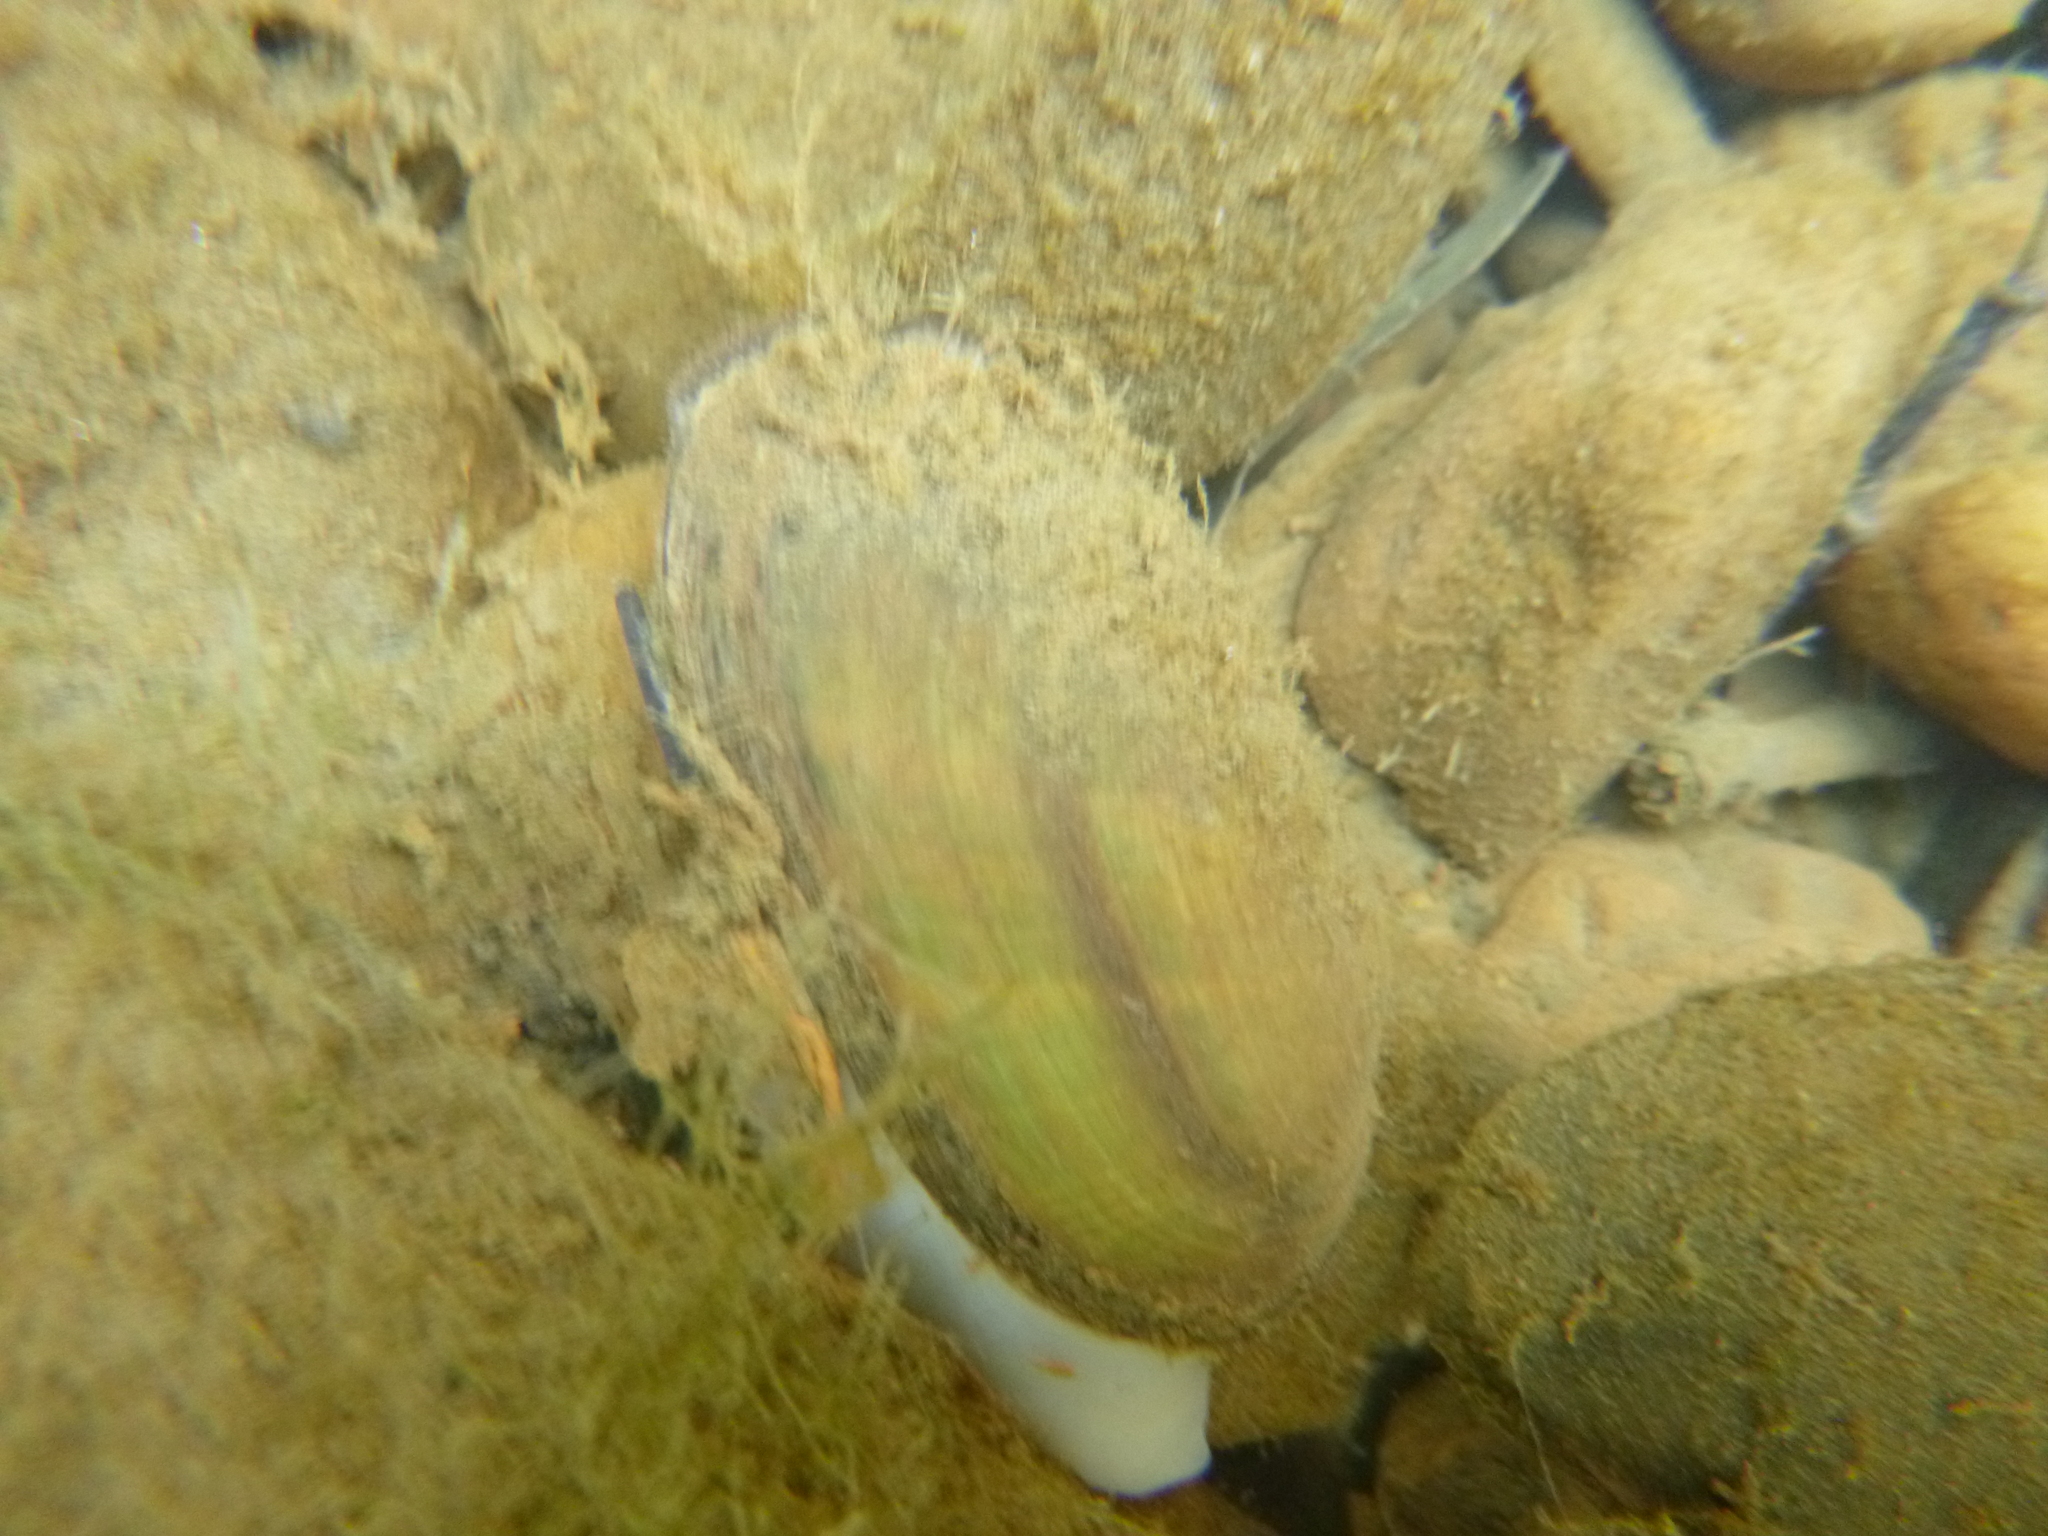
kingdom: Animalia
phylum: Mollusca
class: Bivalvia
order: Unionida
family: Unionidae
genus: Unio
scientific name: Unio crassus
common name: Thick shelled river mussel
